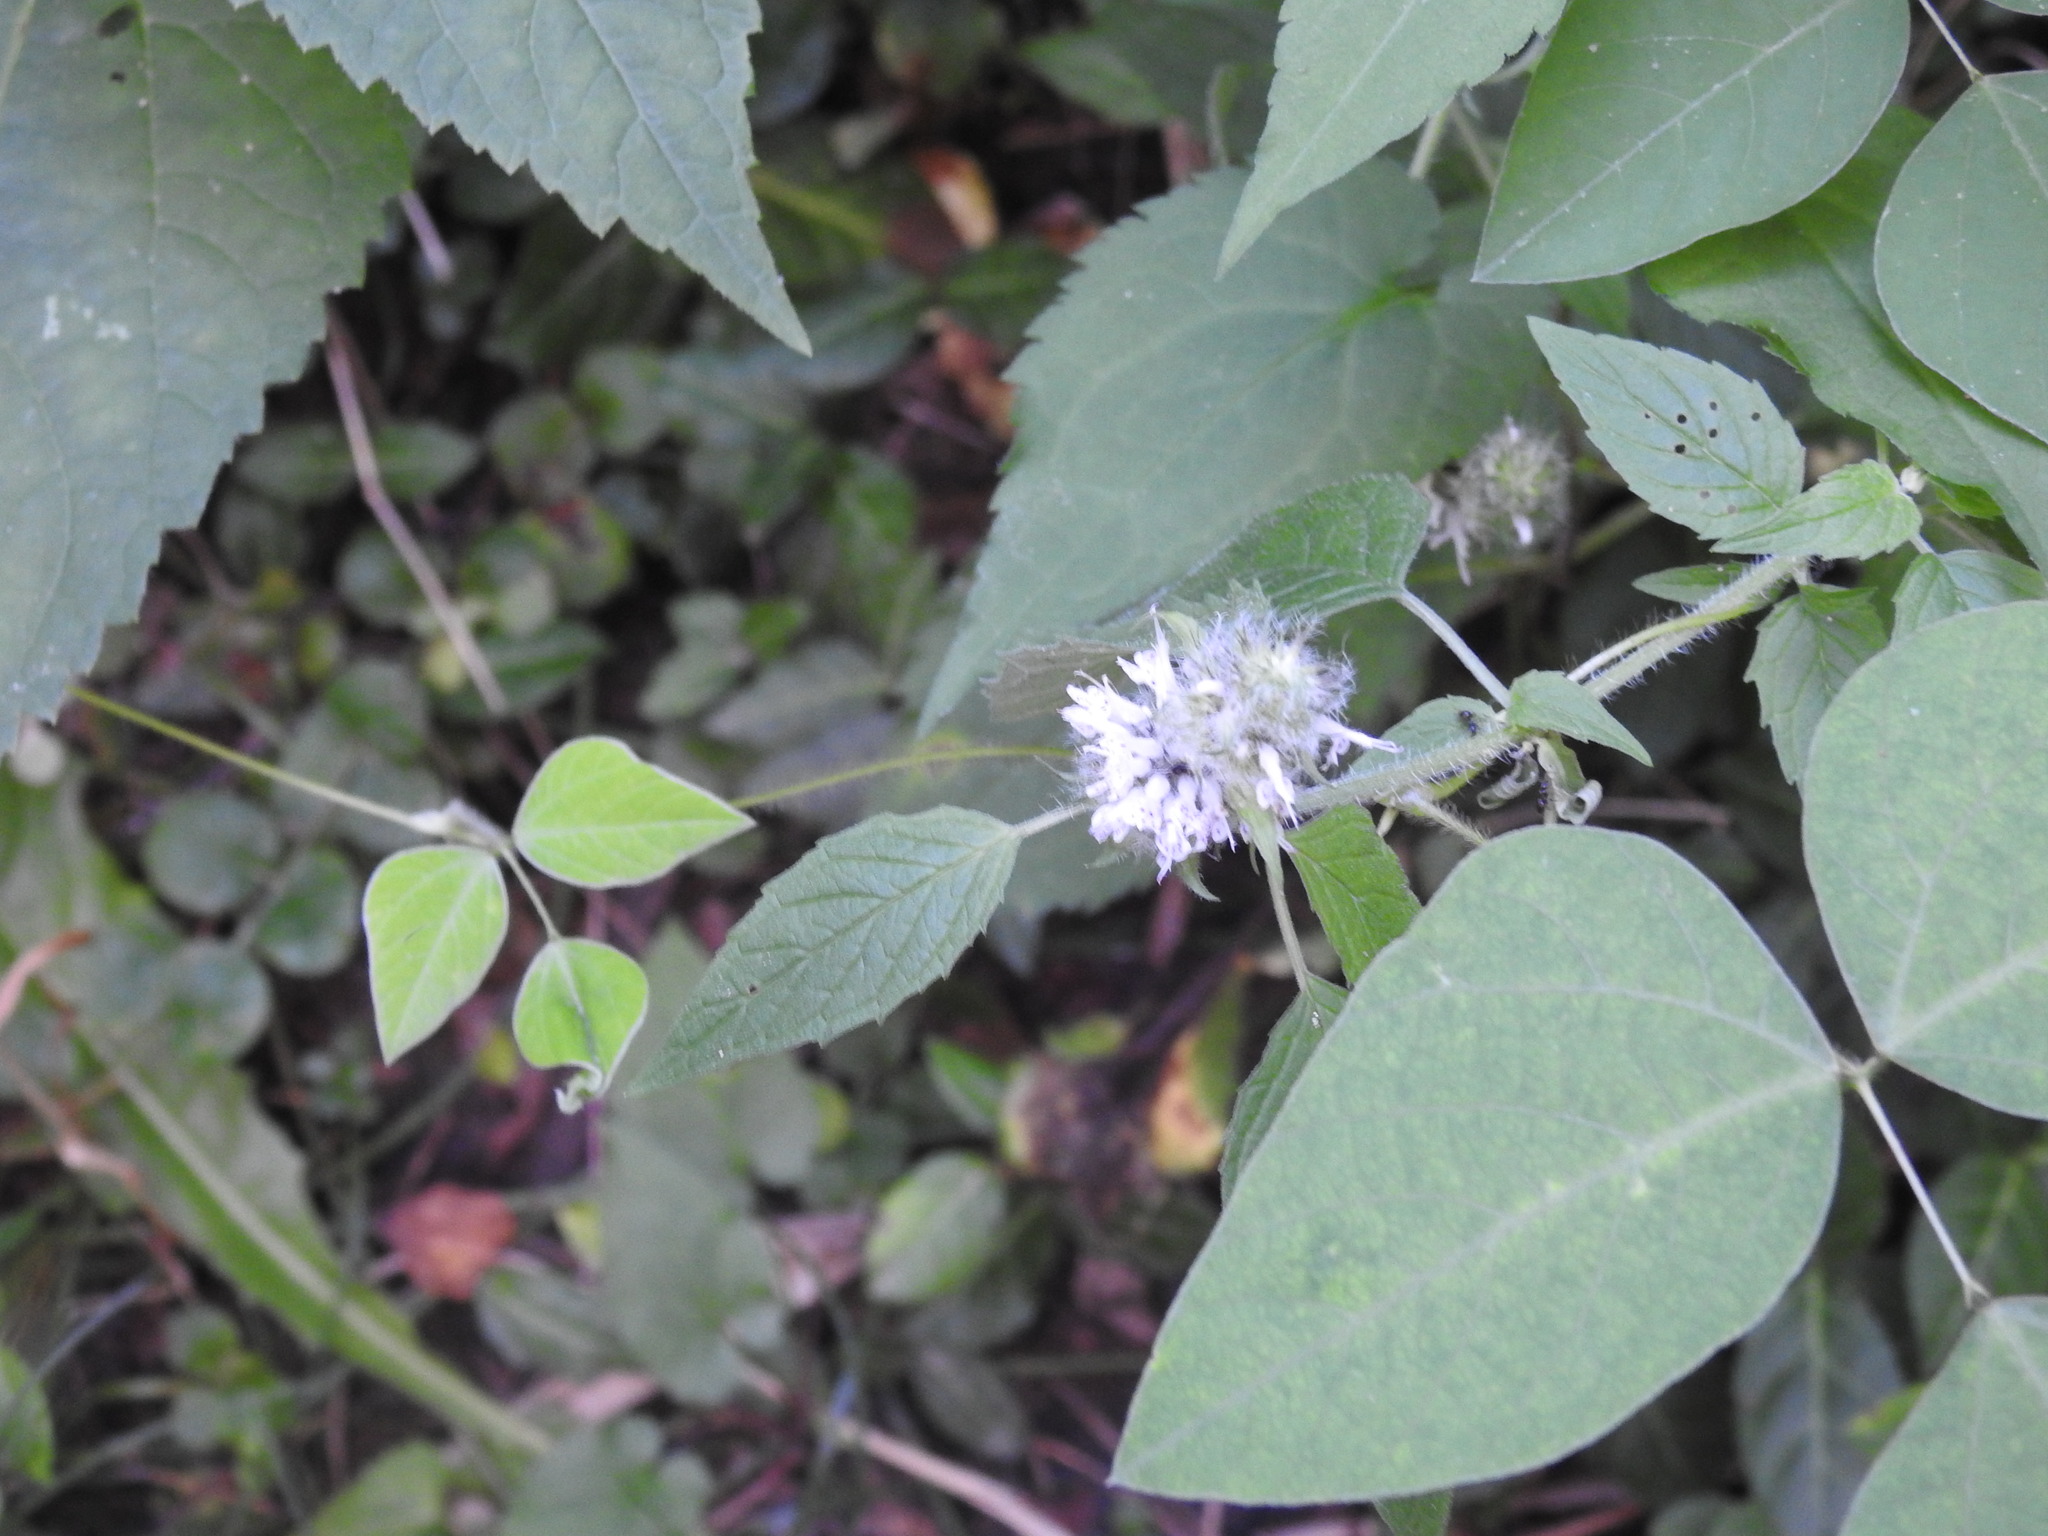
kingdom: Plantae
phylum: Tracheophyta
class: Magnoliopsida
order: Lamiales
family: Lamiaceae
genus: Blephilia
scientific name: Blephilia hirsuta
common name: Hairy blephilia
